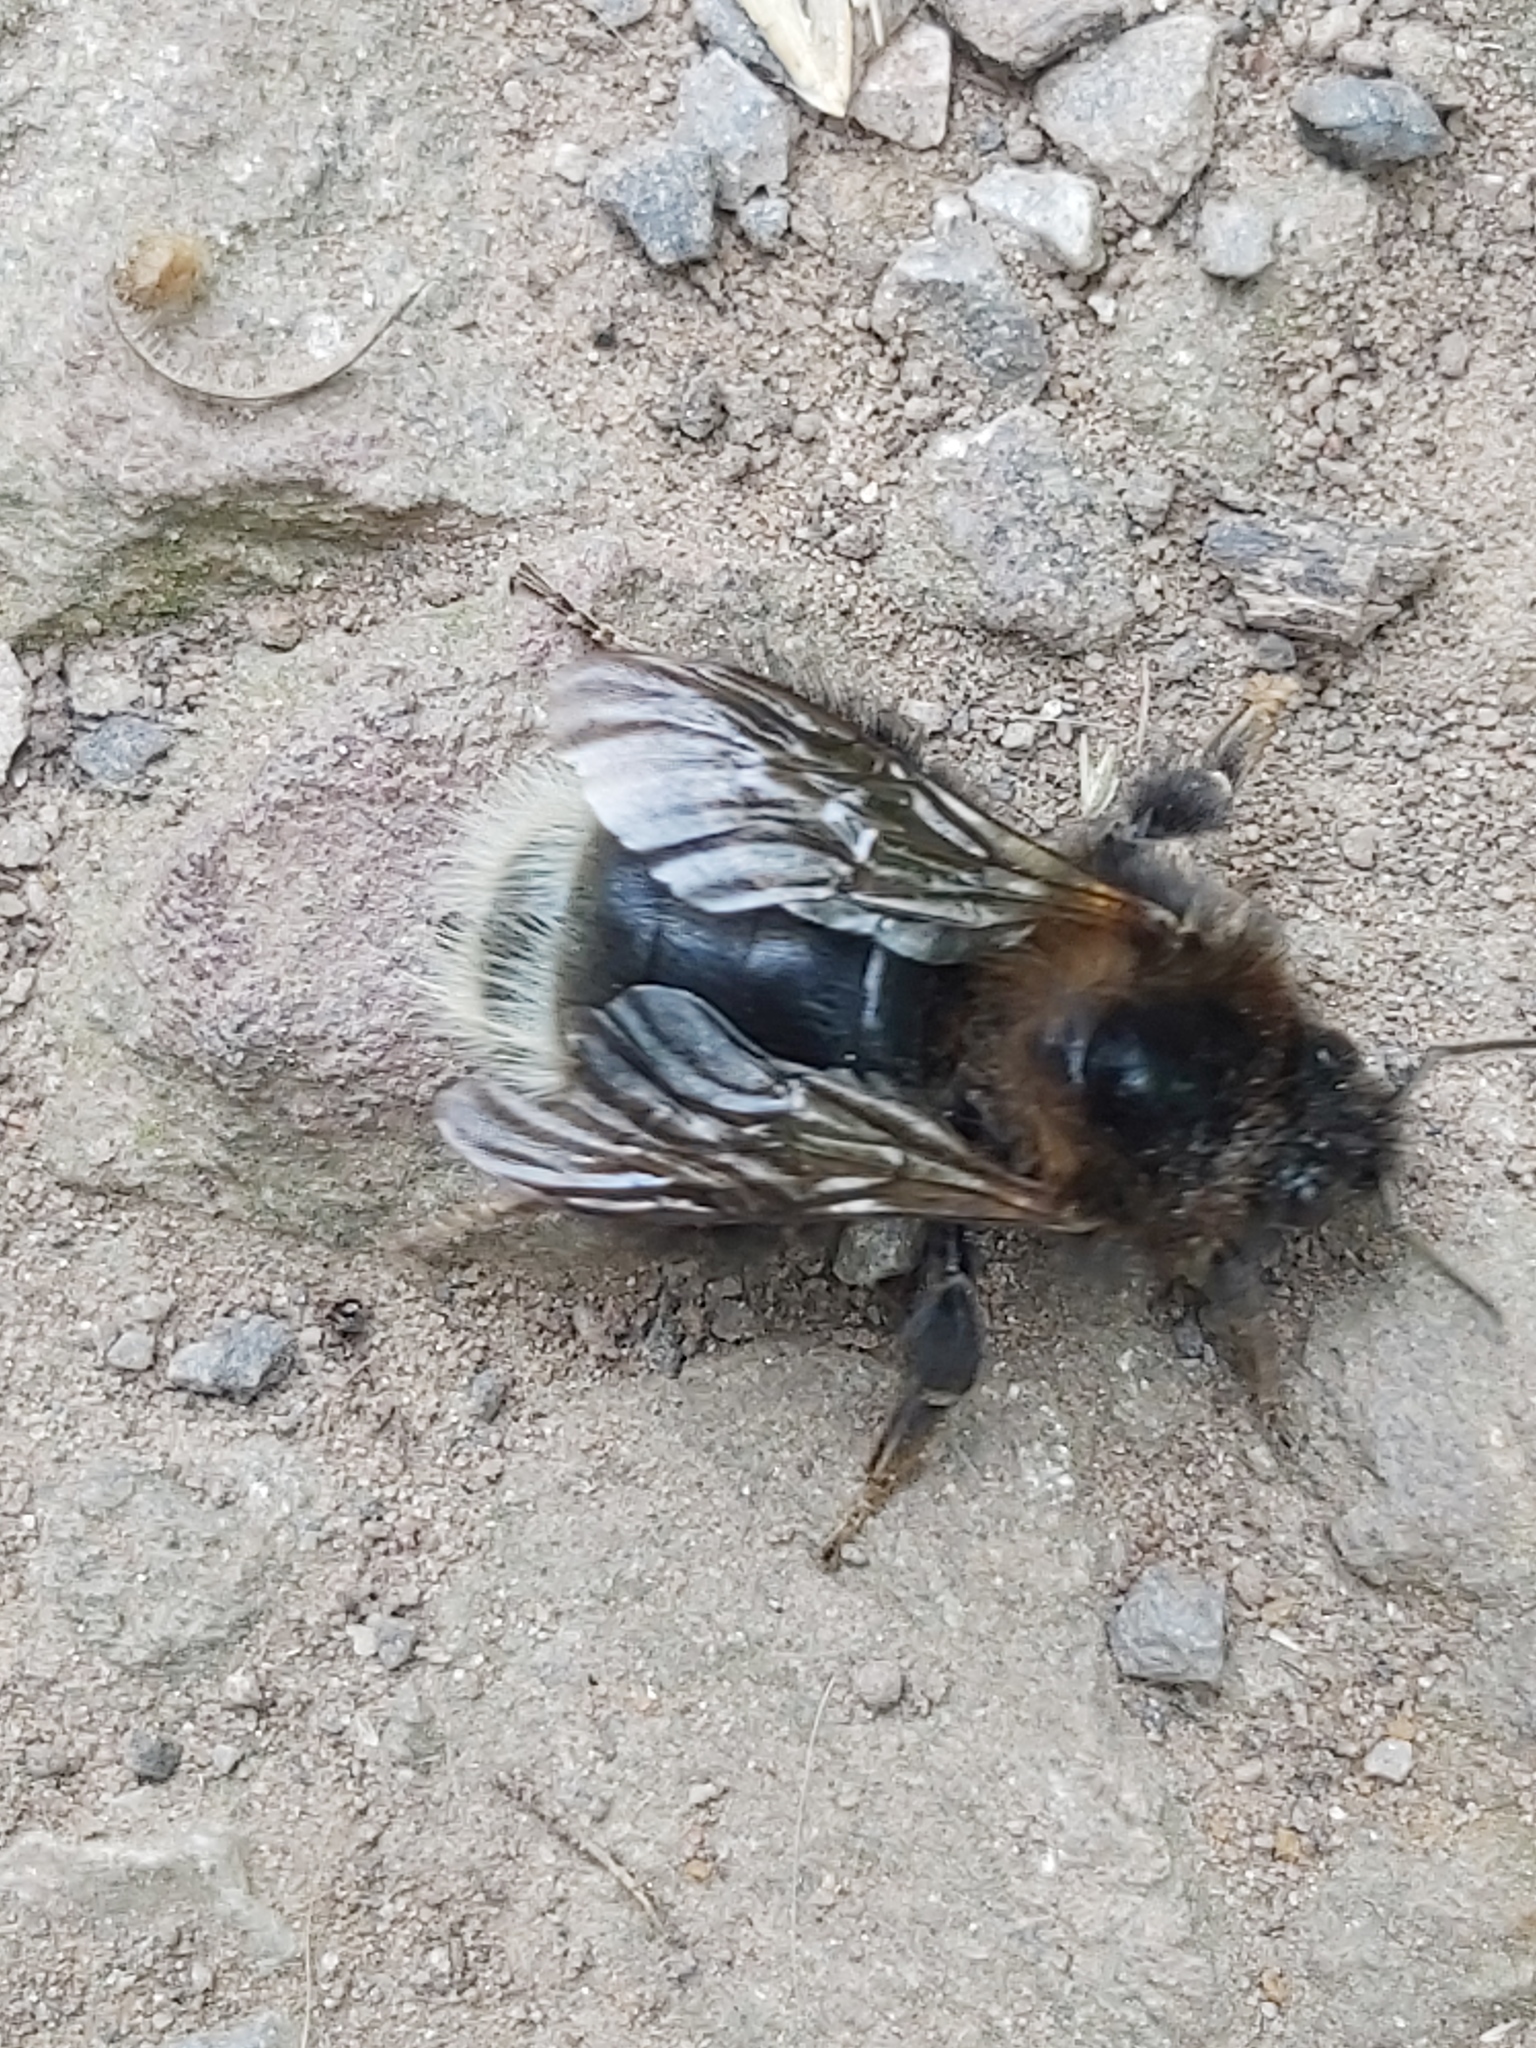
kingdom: Animalia
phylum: Arthropoda
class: Insecta
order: Hymenoptera
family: Apidae
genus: Bombus
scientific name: Bombus hypnorum
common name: New garden bumblebee
